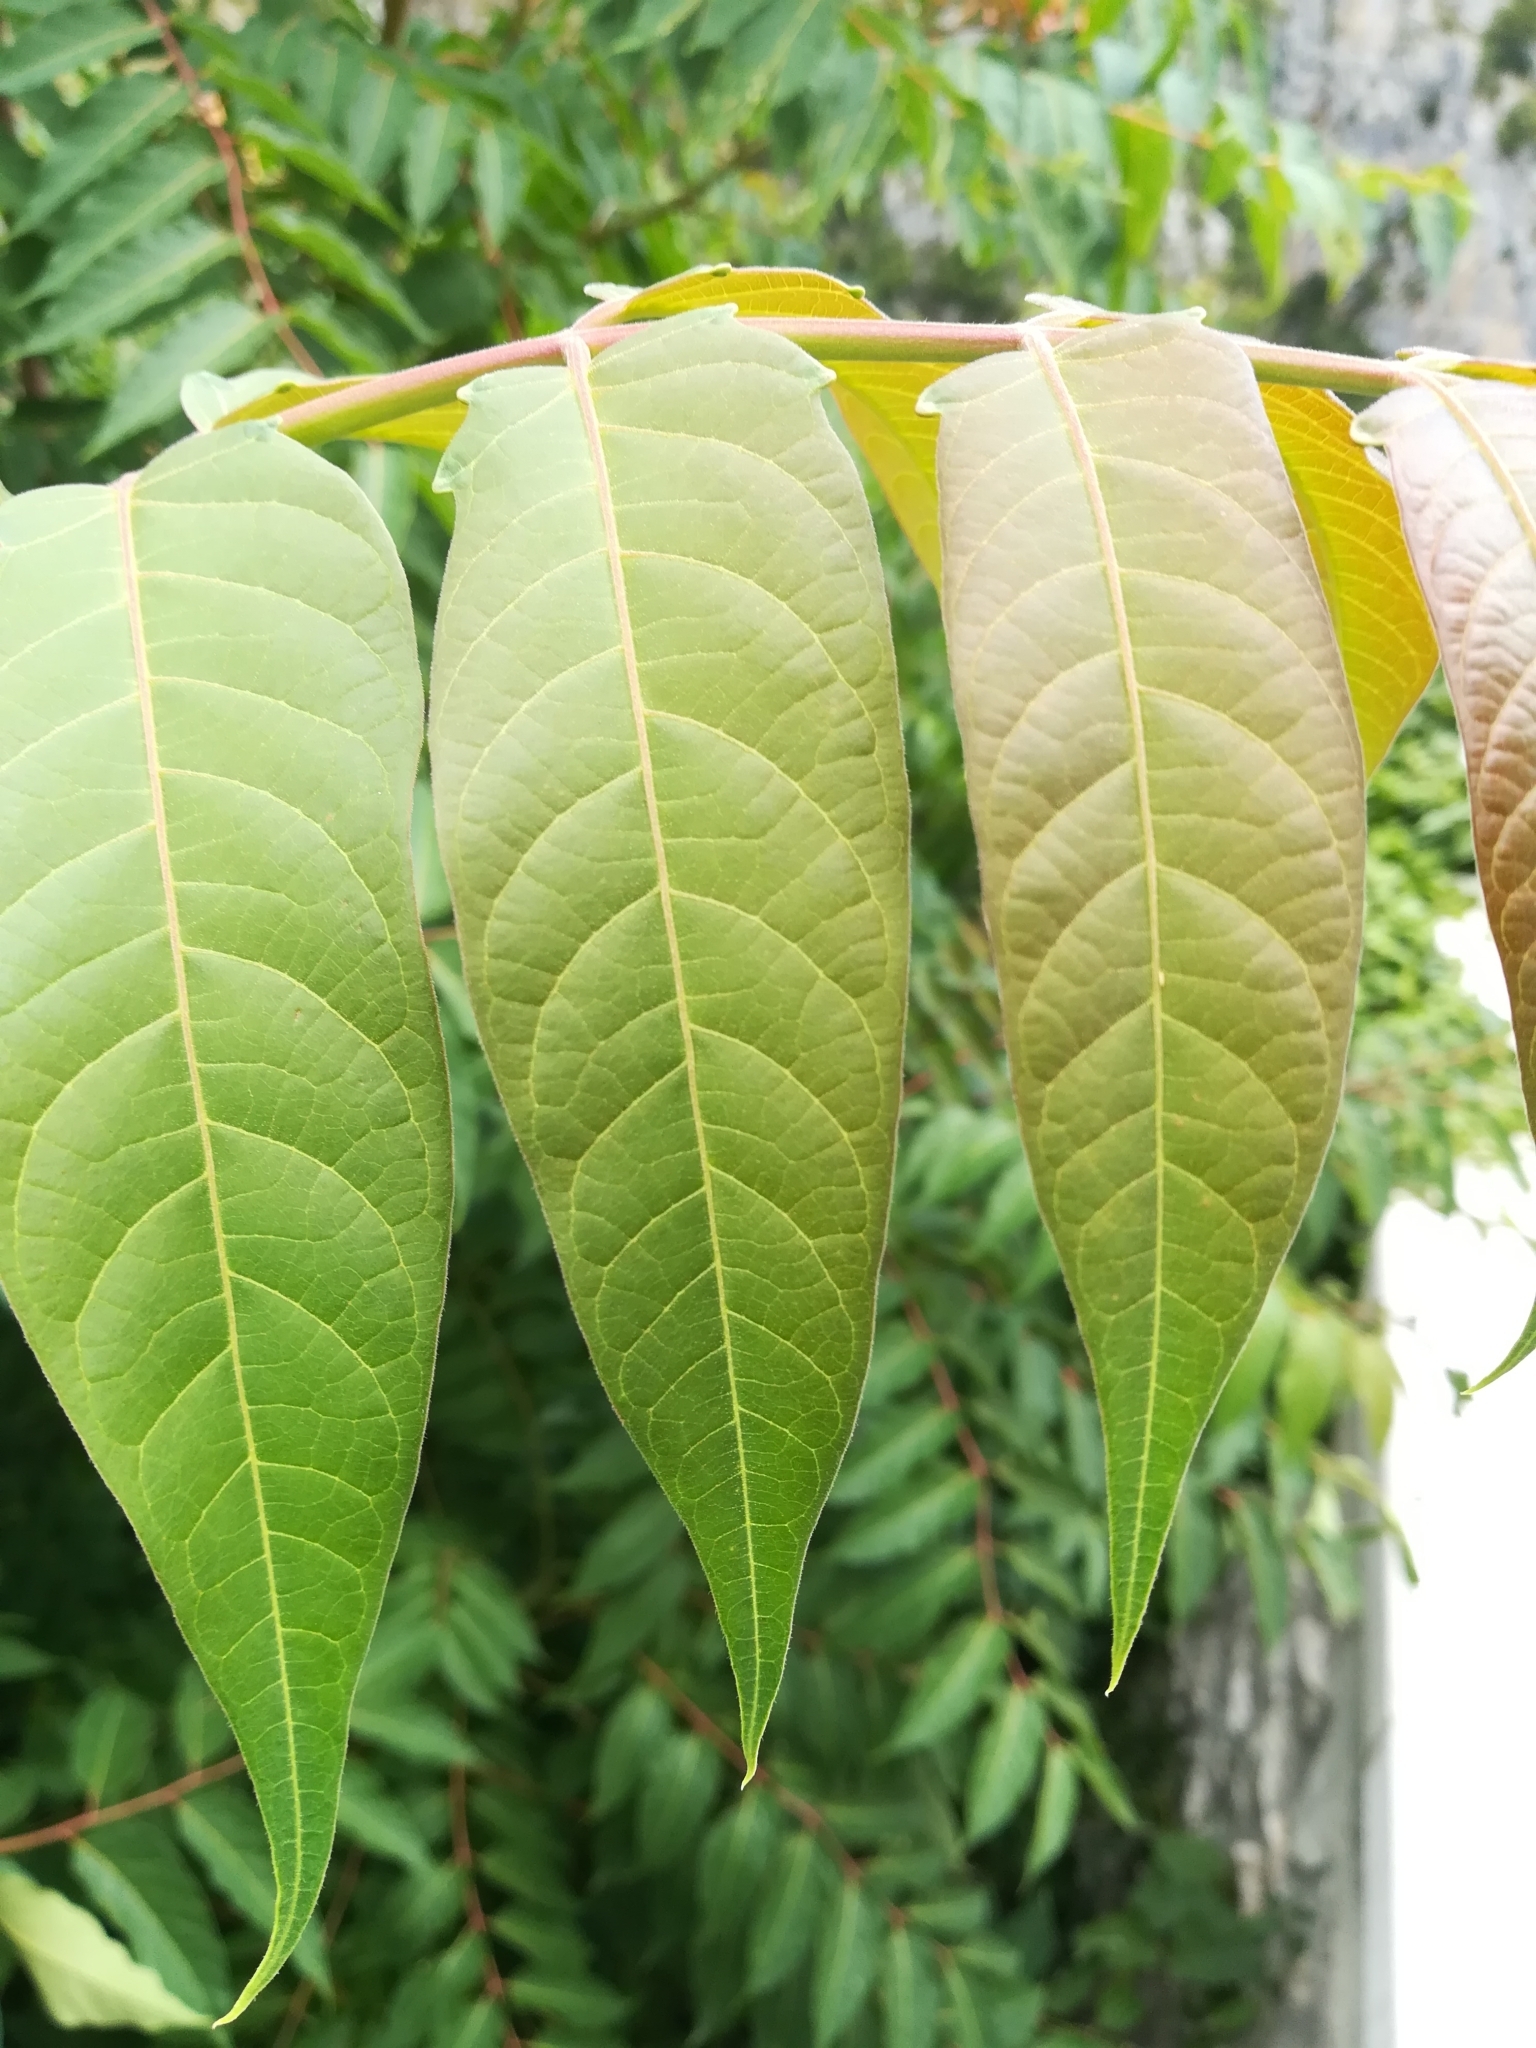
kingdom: Plantae
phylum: Tracheophyta
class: Magnoliopsida
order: Sapindales
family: Simaroubaceae
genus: Ailanthus
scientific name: Ailanthus altissima
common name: Tree-of-heaven
